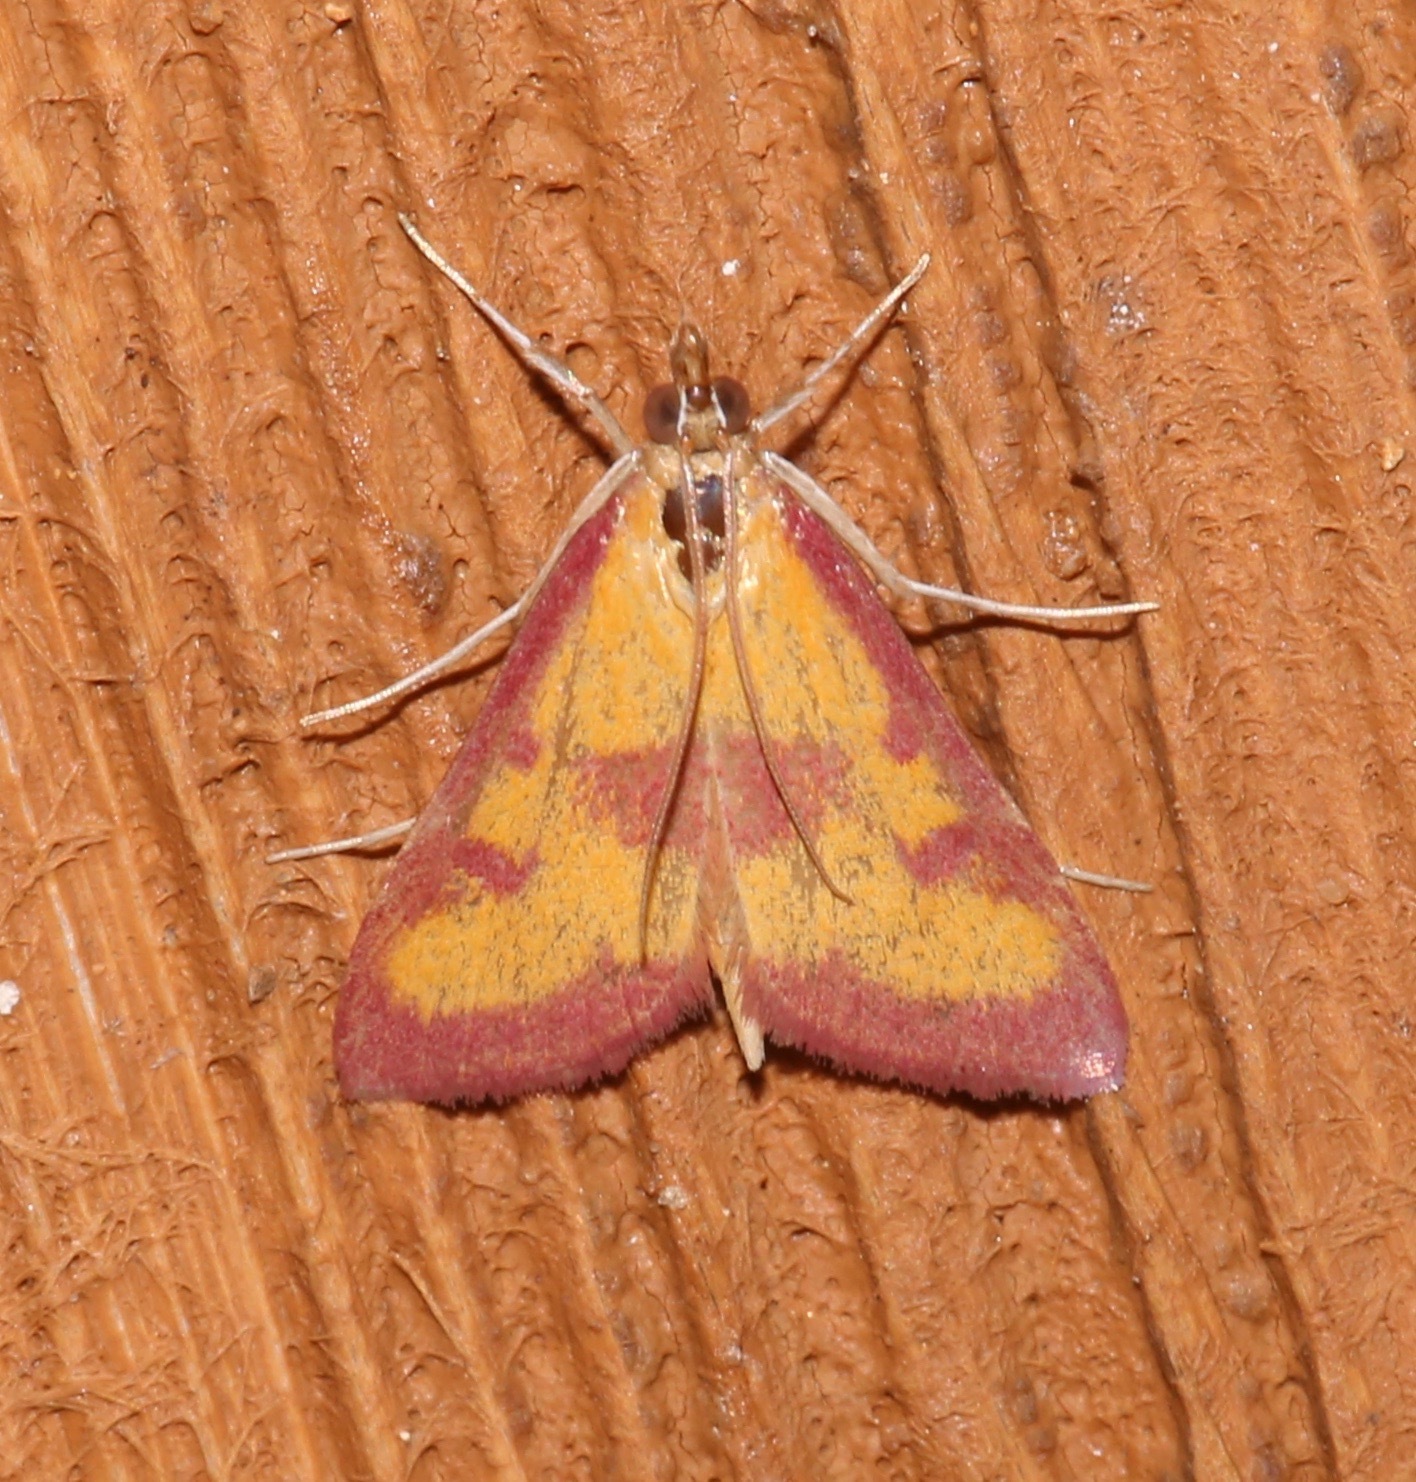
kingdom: Animalia
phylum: Arthropoda
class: Insecta
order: Lepidoptera
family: Crambidae
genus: Pyrausta
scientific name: Pyrausta laticlavia
